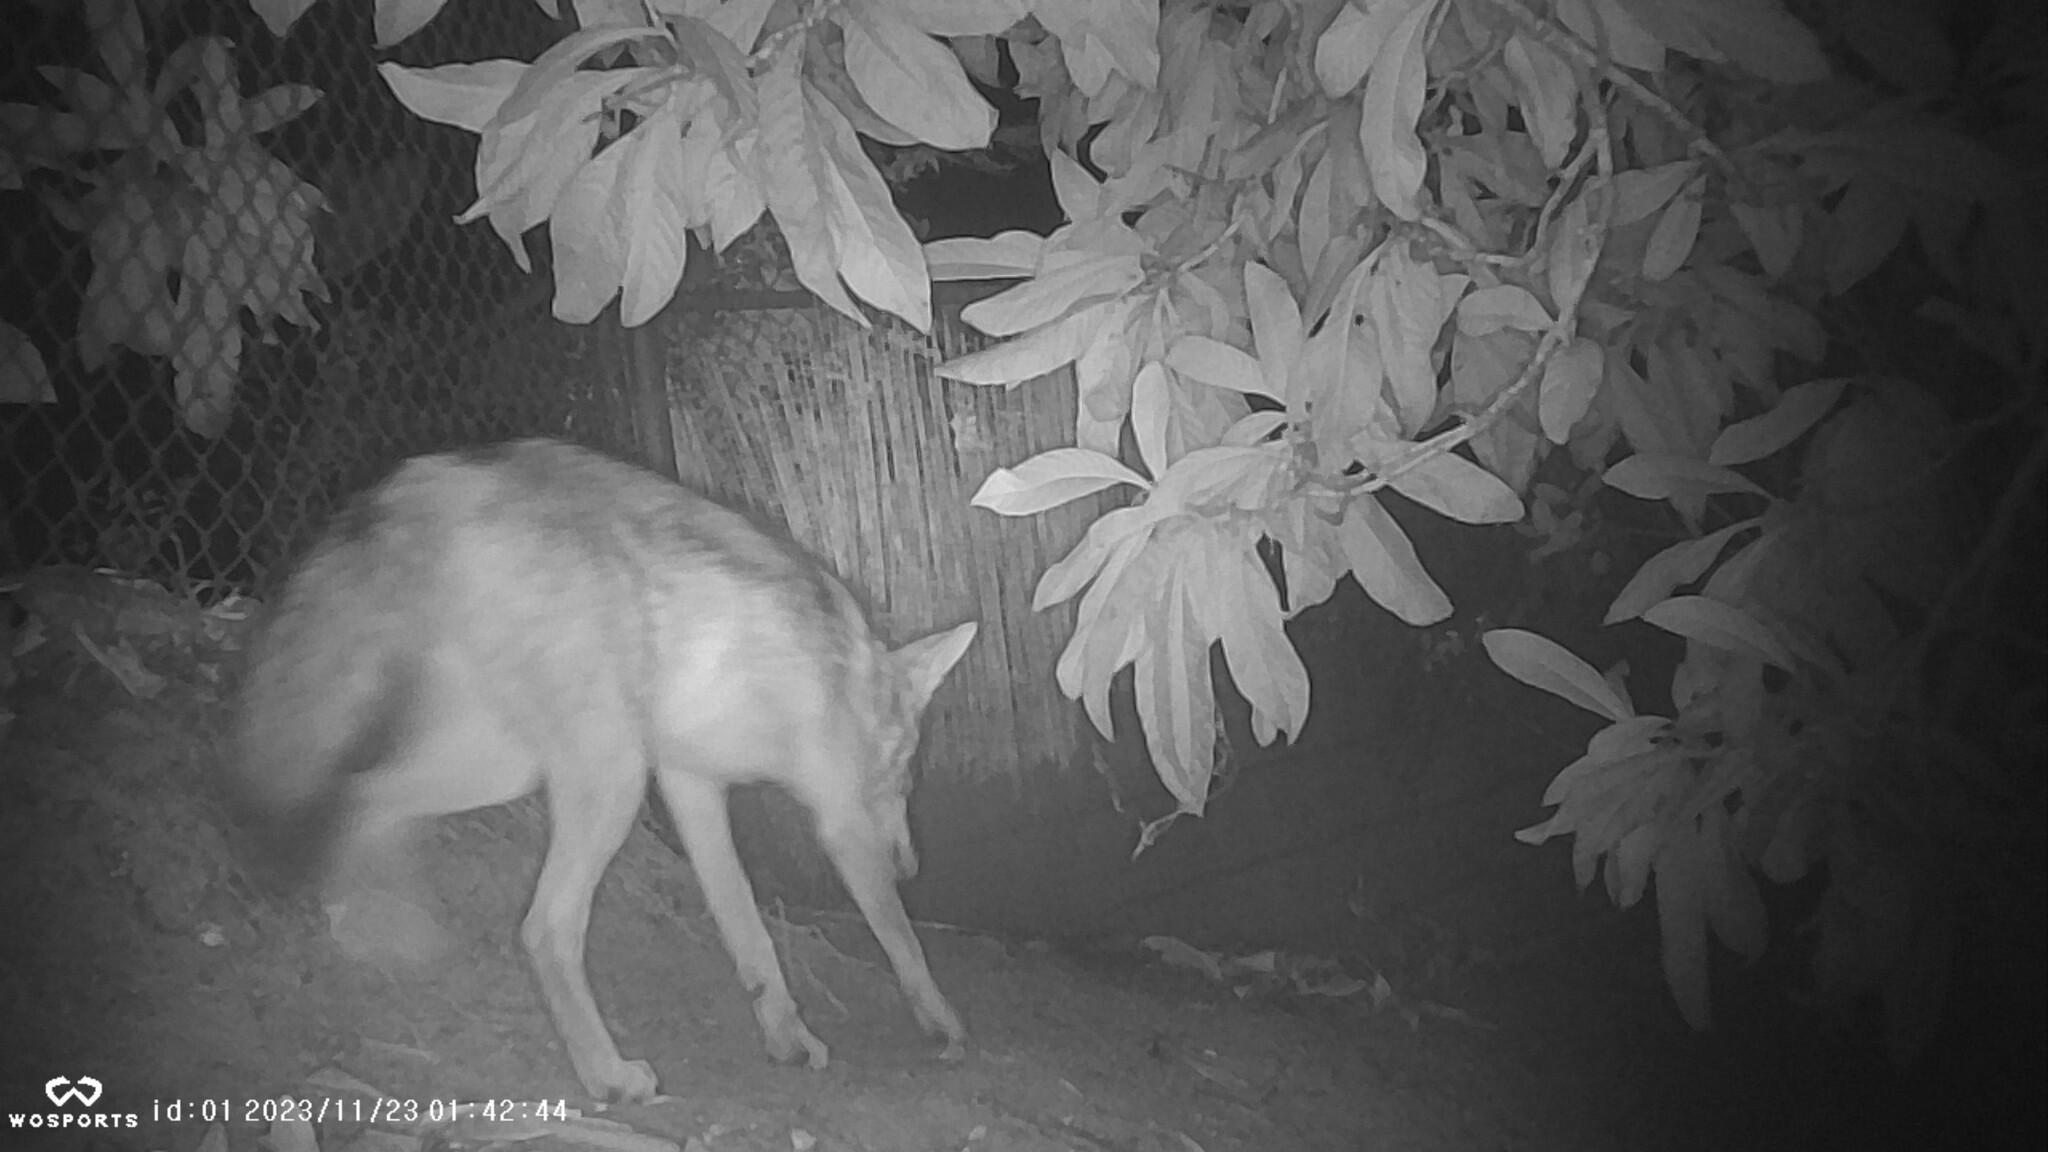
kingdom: Animalia
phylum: Chordata
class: Mammalia
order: Carnivora
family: Canidae
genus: Canis
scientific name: Canis latrans
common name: Coyote
